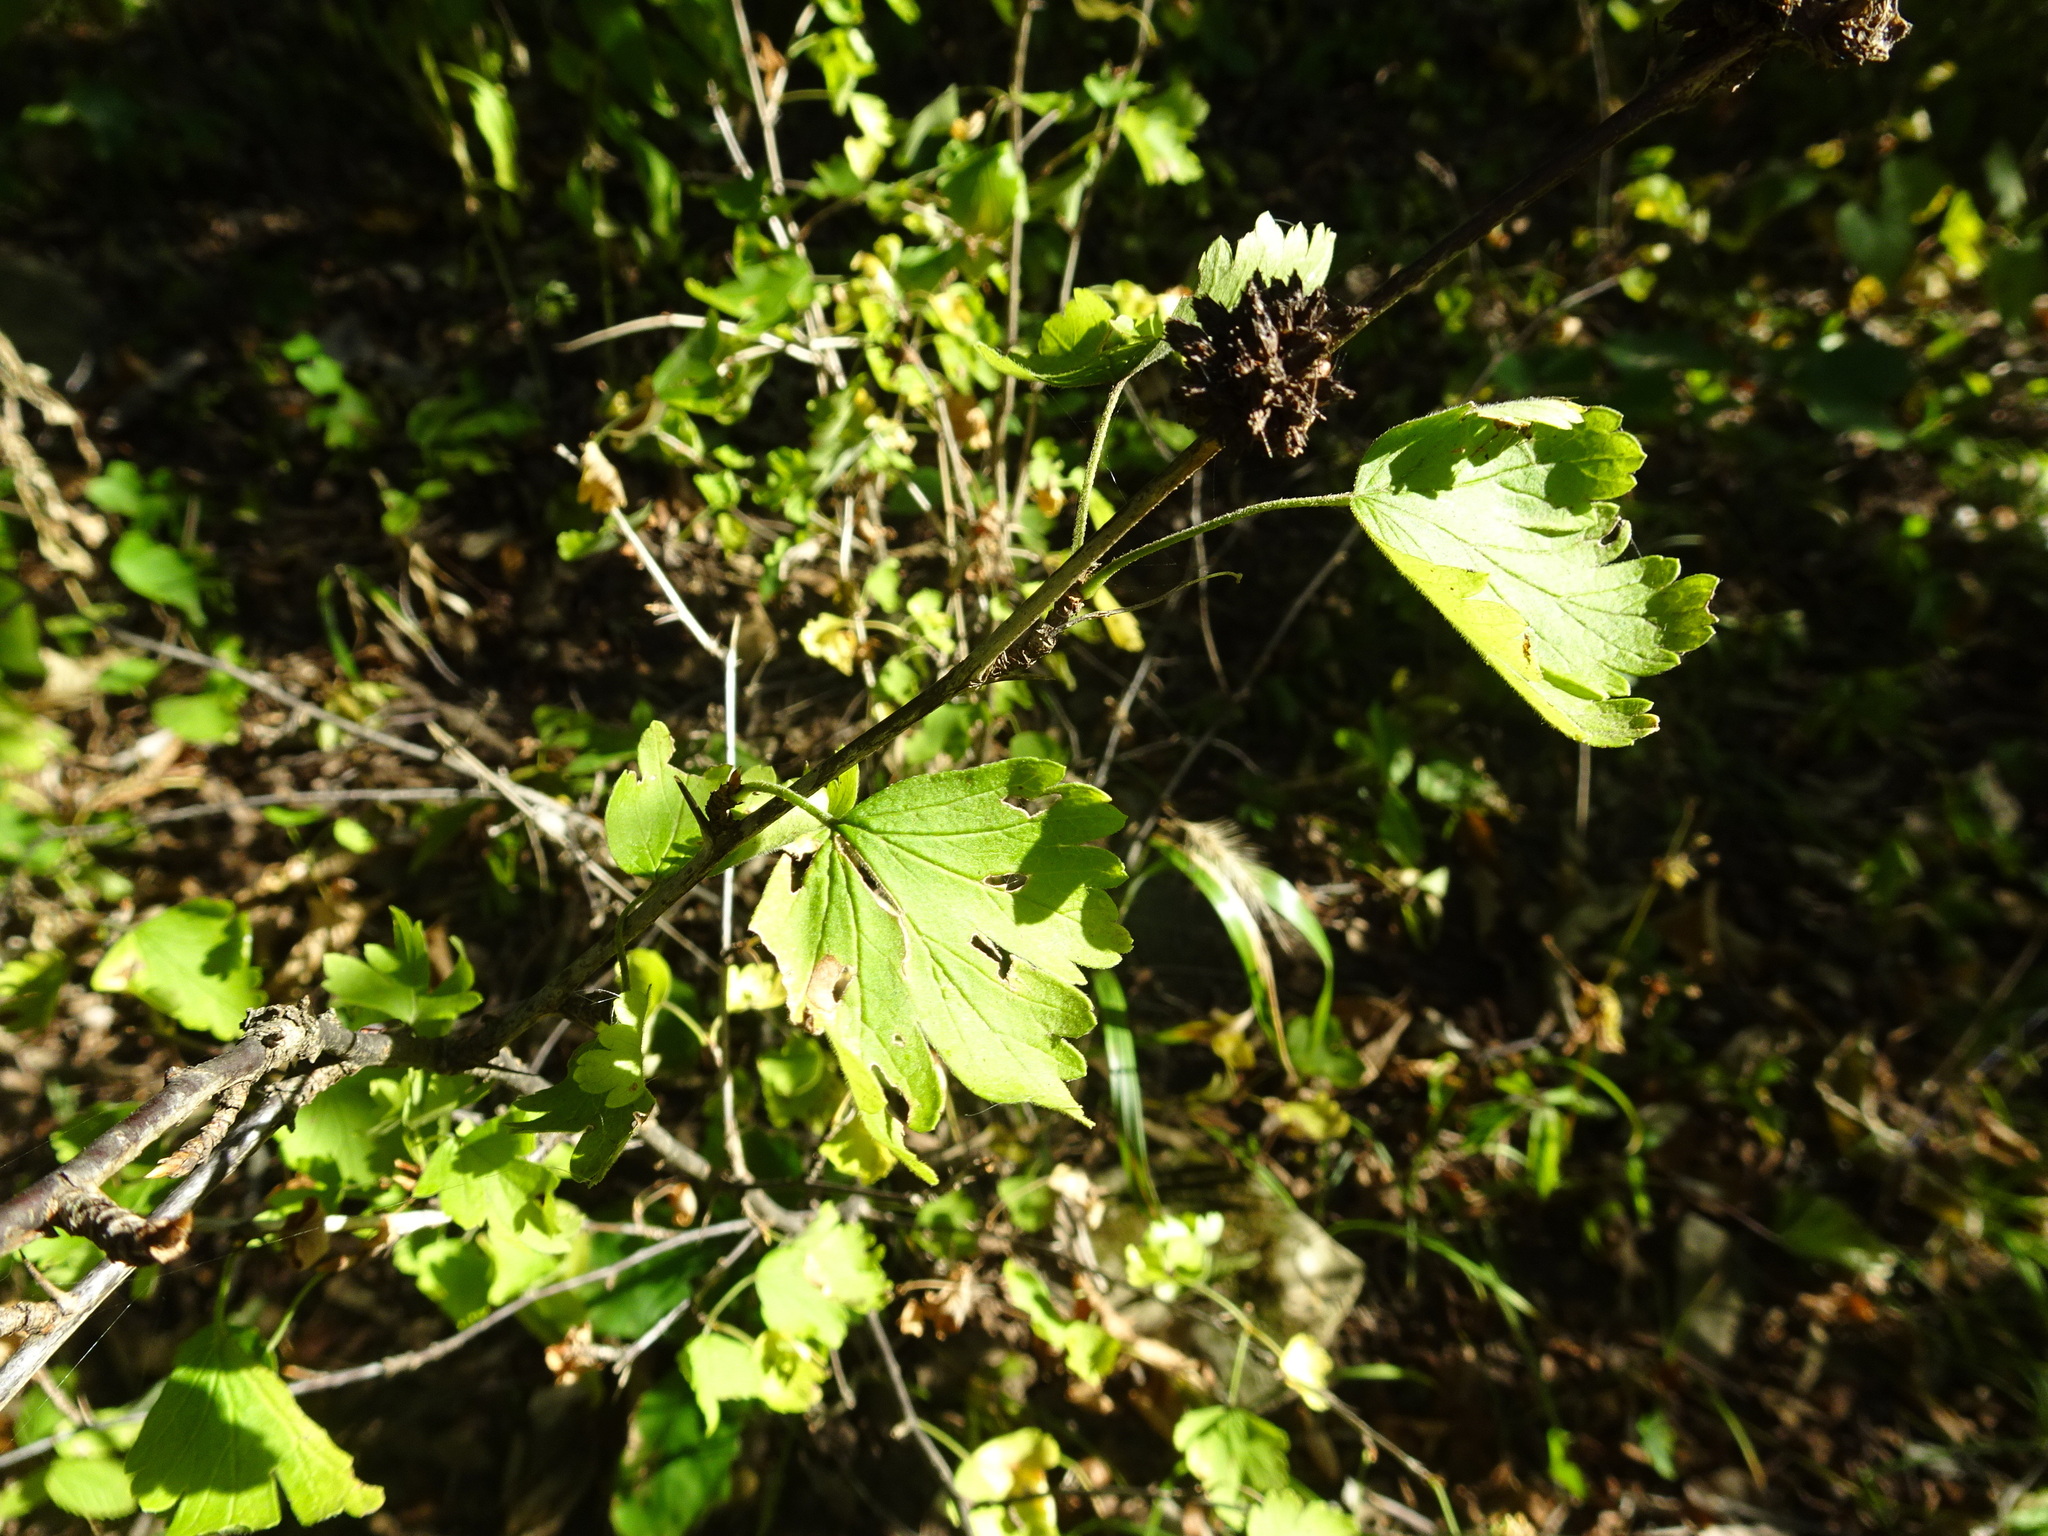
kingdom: Plantae
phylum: Tracheophyta
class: Magnoliopsida
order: Saxifragales
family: Grossulariaceae
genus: Ribes
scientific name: Ribes missouriense
